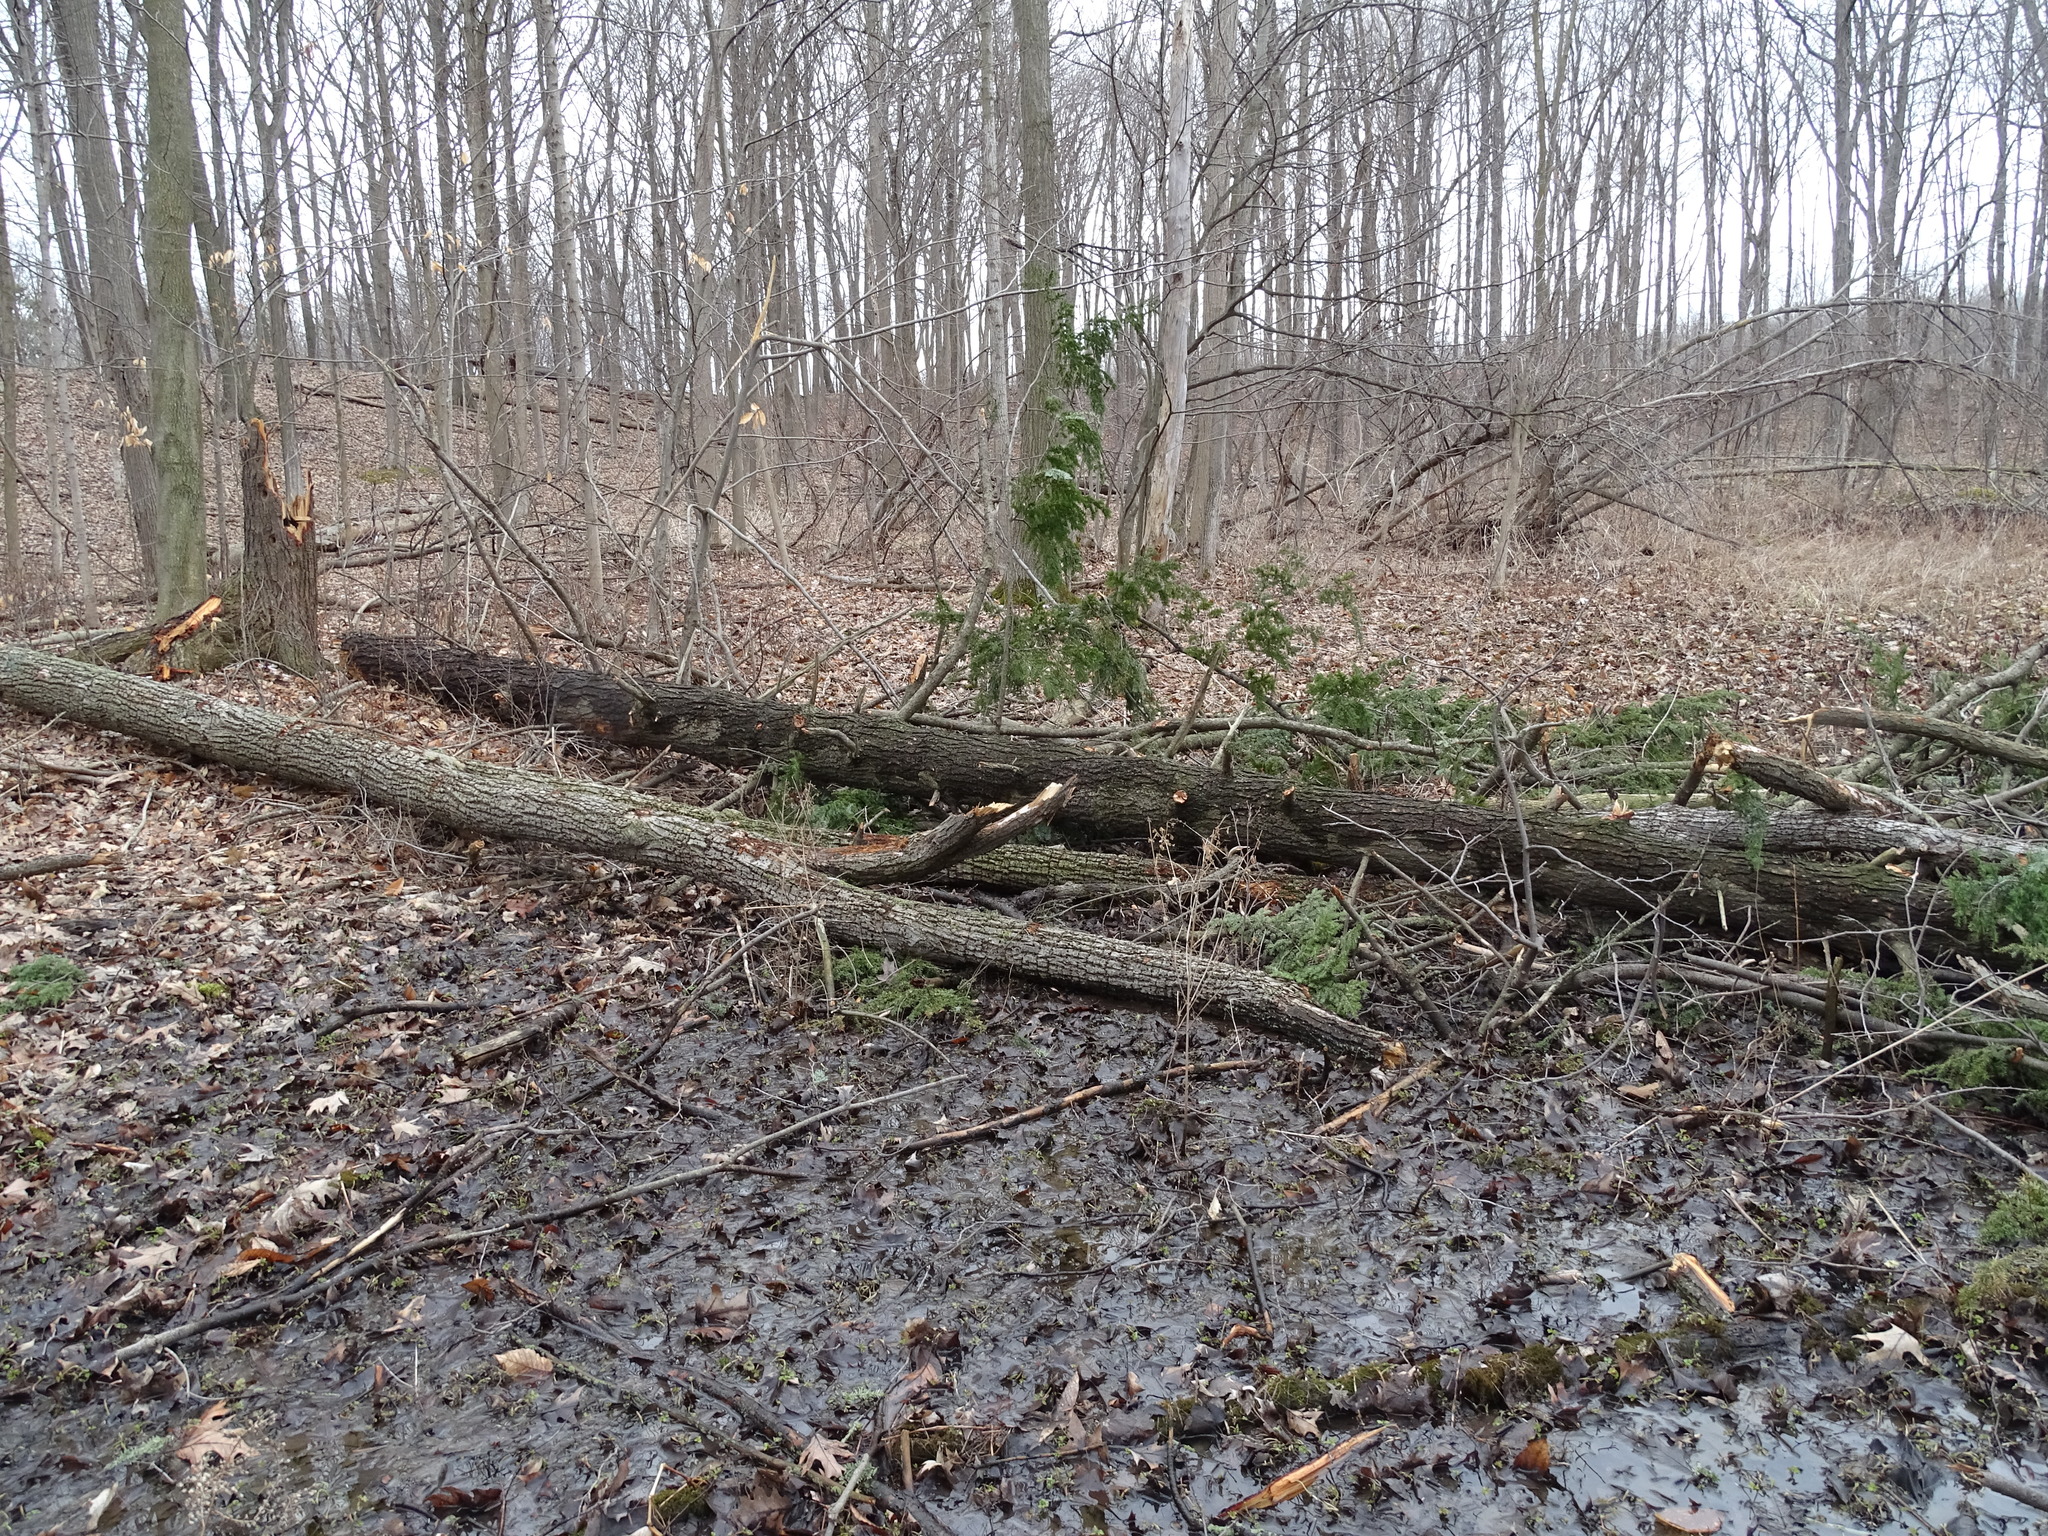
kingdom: Plantae
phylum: Tracheophyta
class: Pinopsida
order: Pinales
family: Pinaceae
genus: Tsuga
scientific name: Tsuga canadensis
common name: Eastern hemlock
